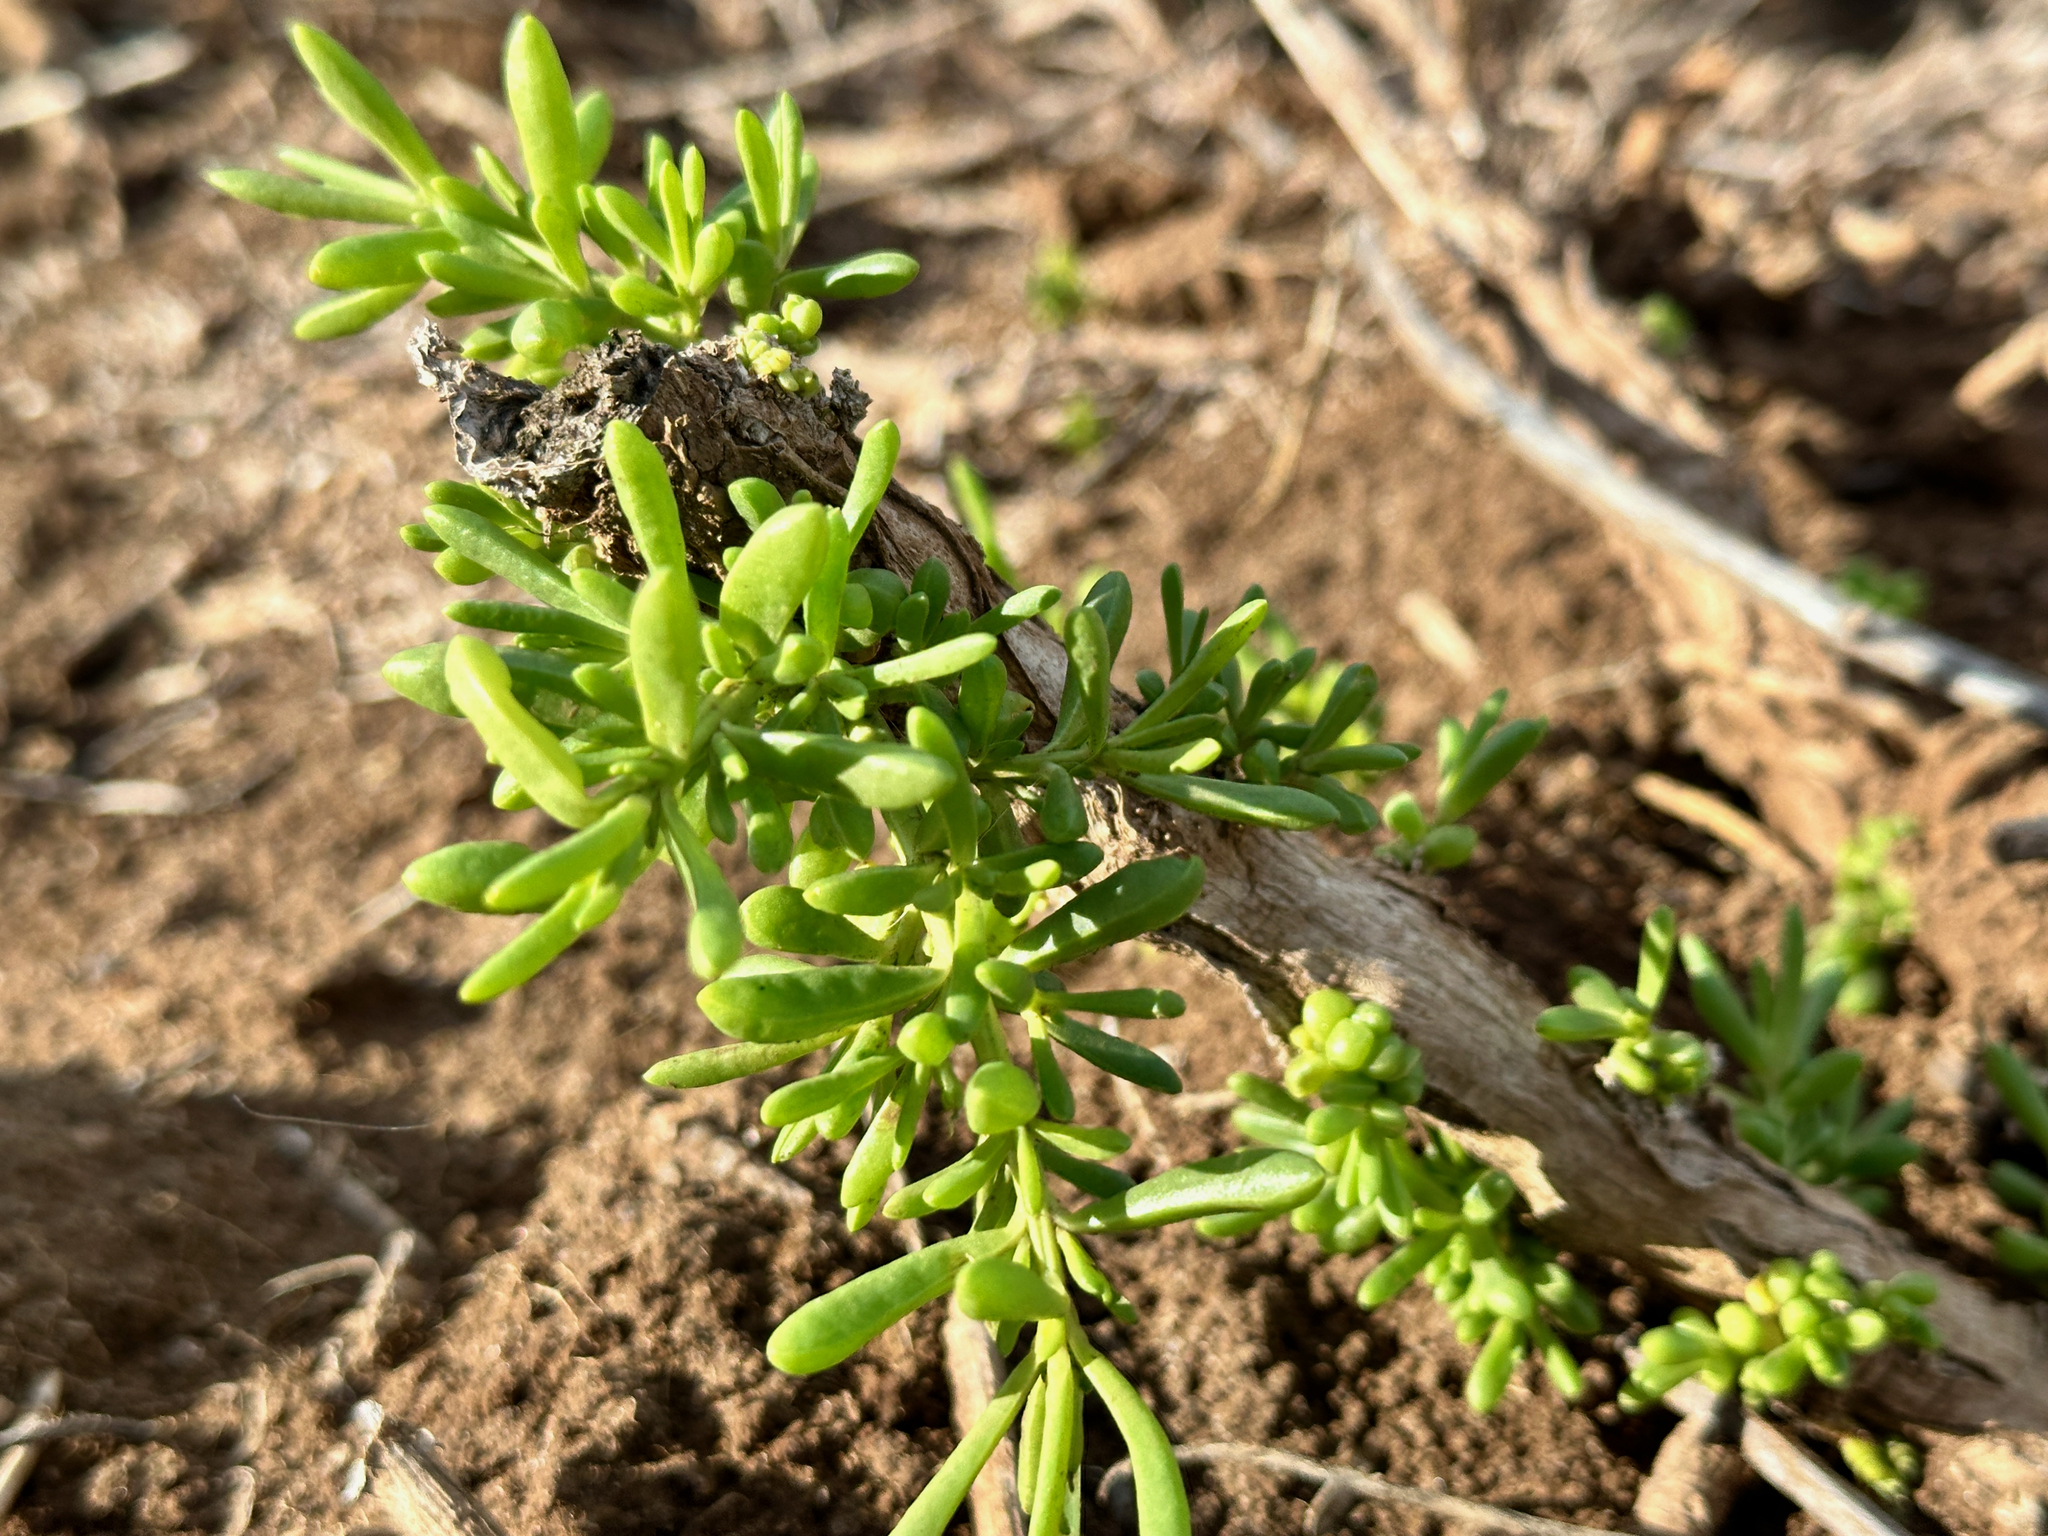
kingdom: Plantae
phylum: Tracheophyta
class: Magnoliopsida
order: Brassicales
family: Bataceae
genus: Batis
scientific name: Batis maritima
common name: Turtleweed
